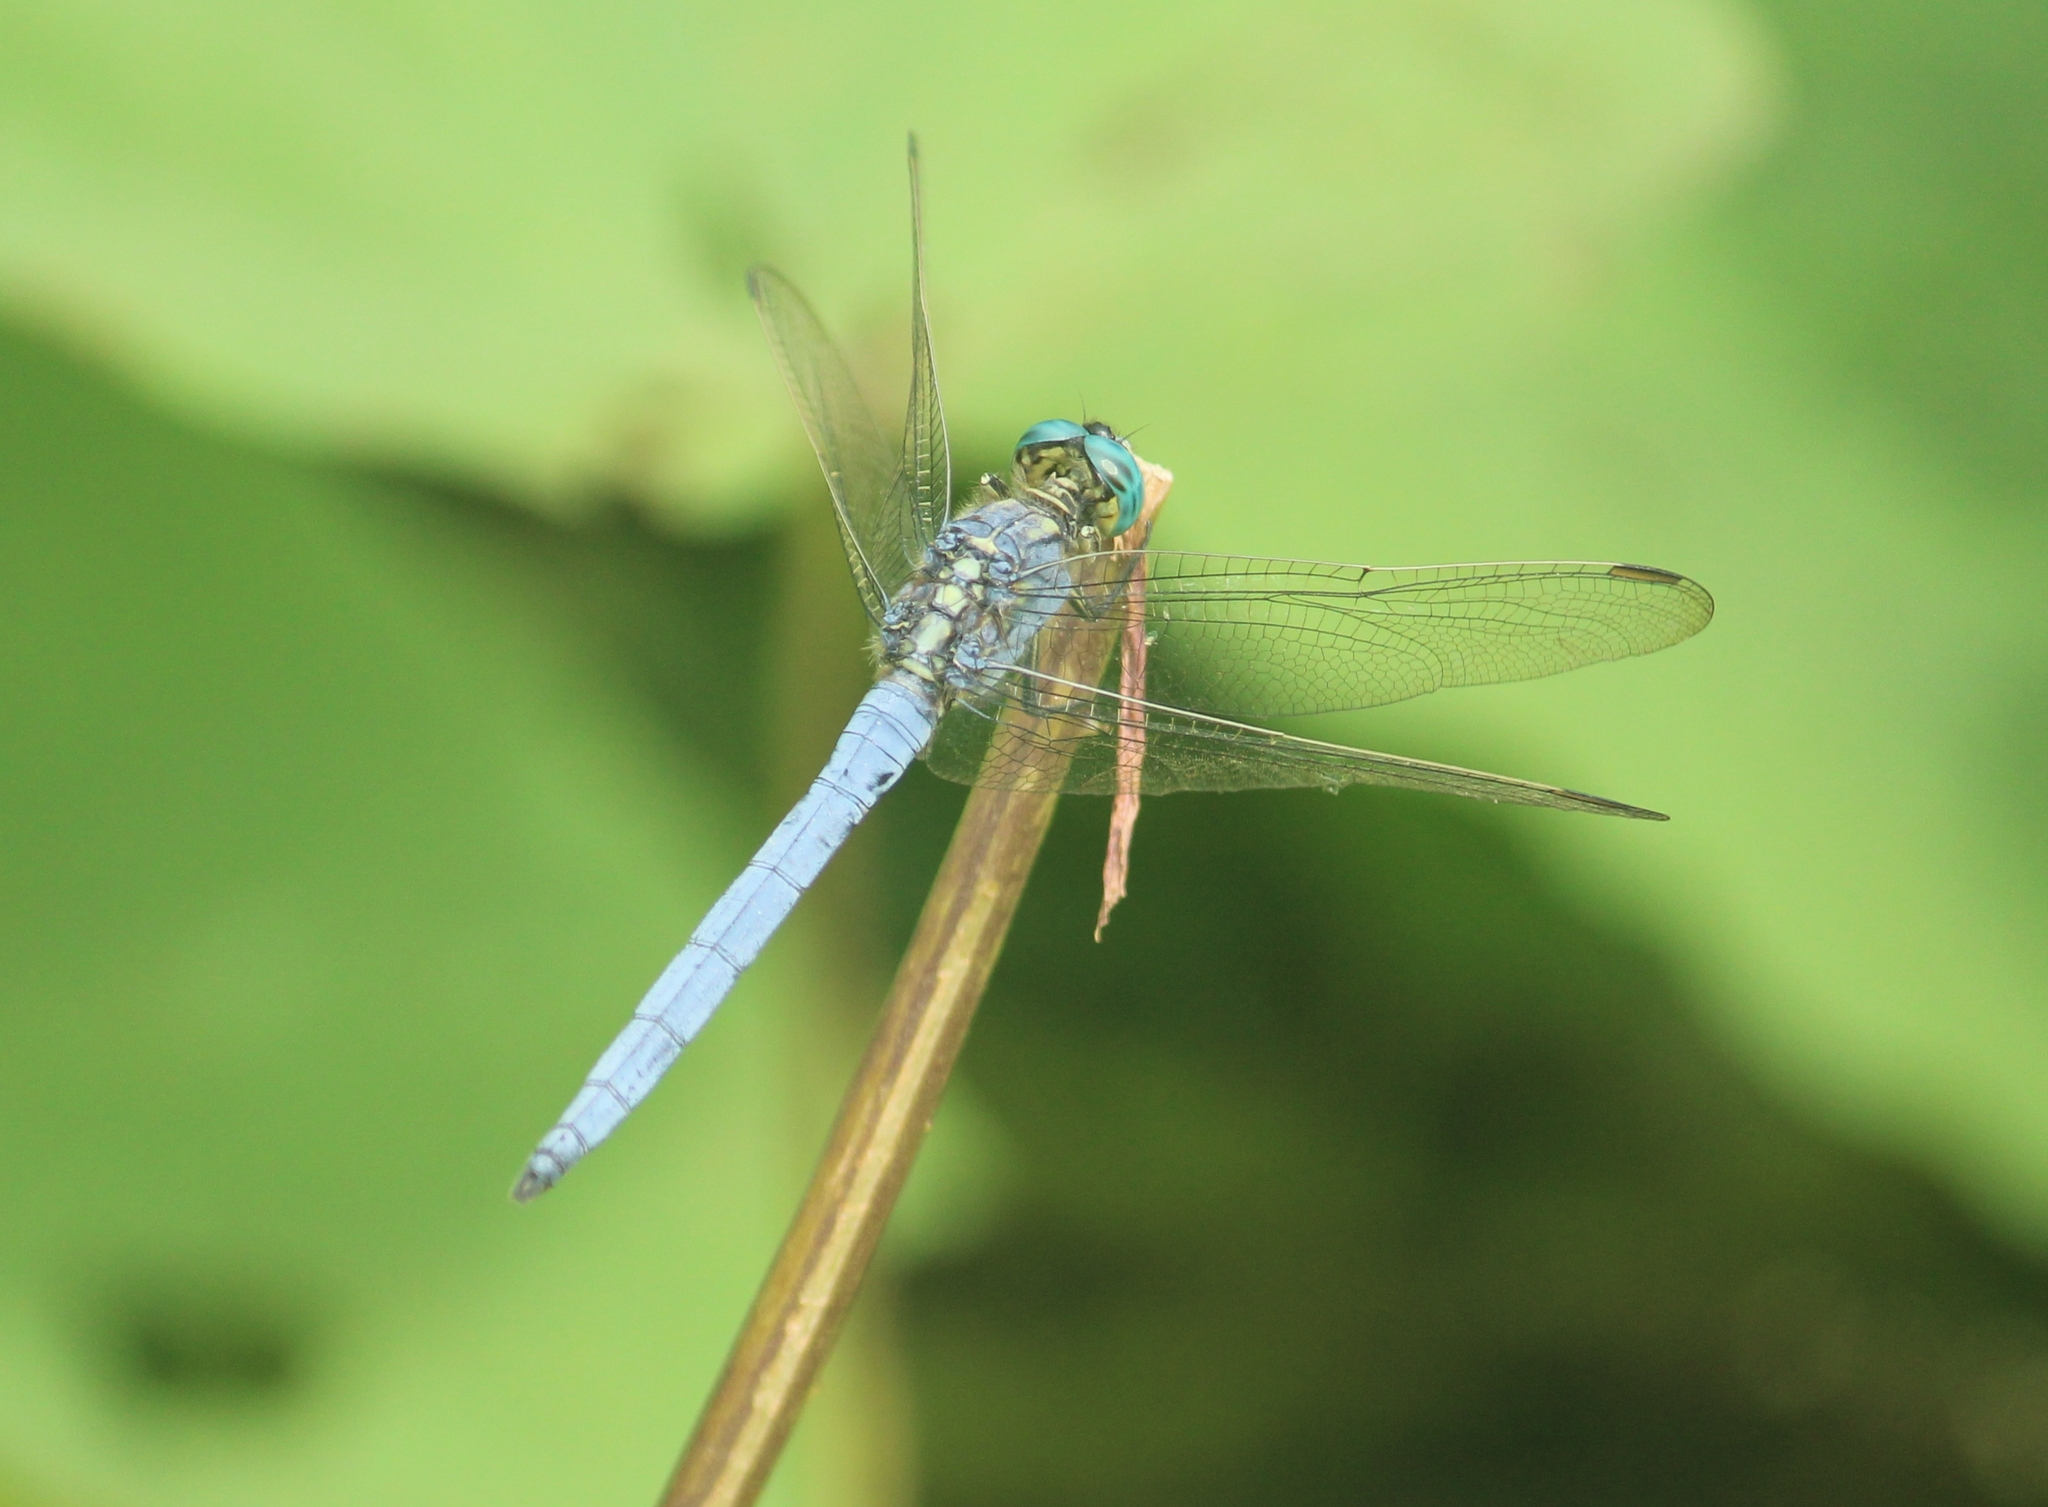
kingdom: Animalia
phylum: Arthropoda
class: Insecta
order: Odonata
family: Libellulidae
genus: Orthetrum
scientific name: Orthetrum luzonicum
